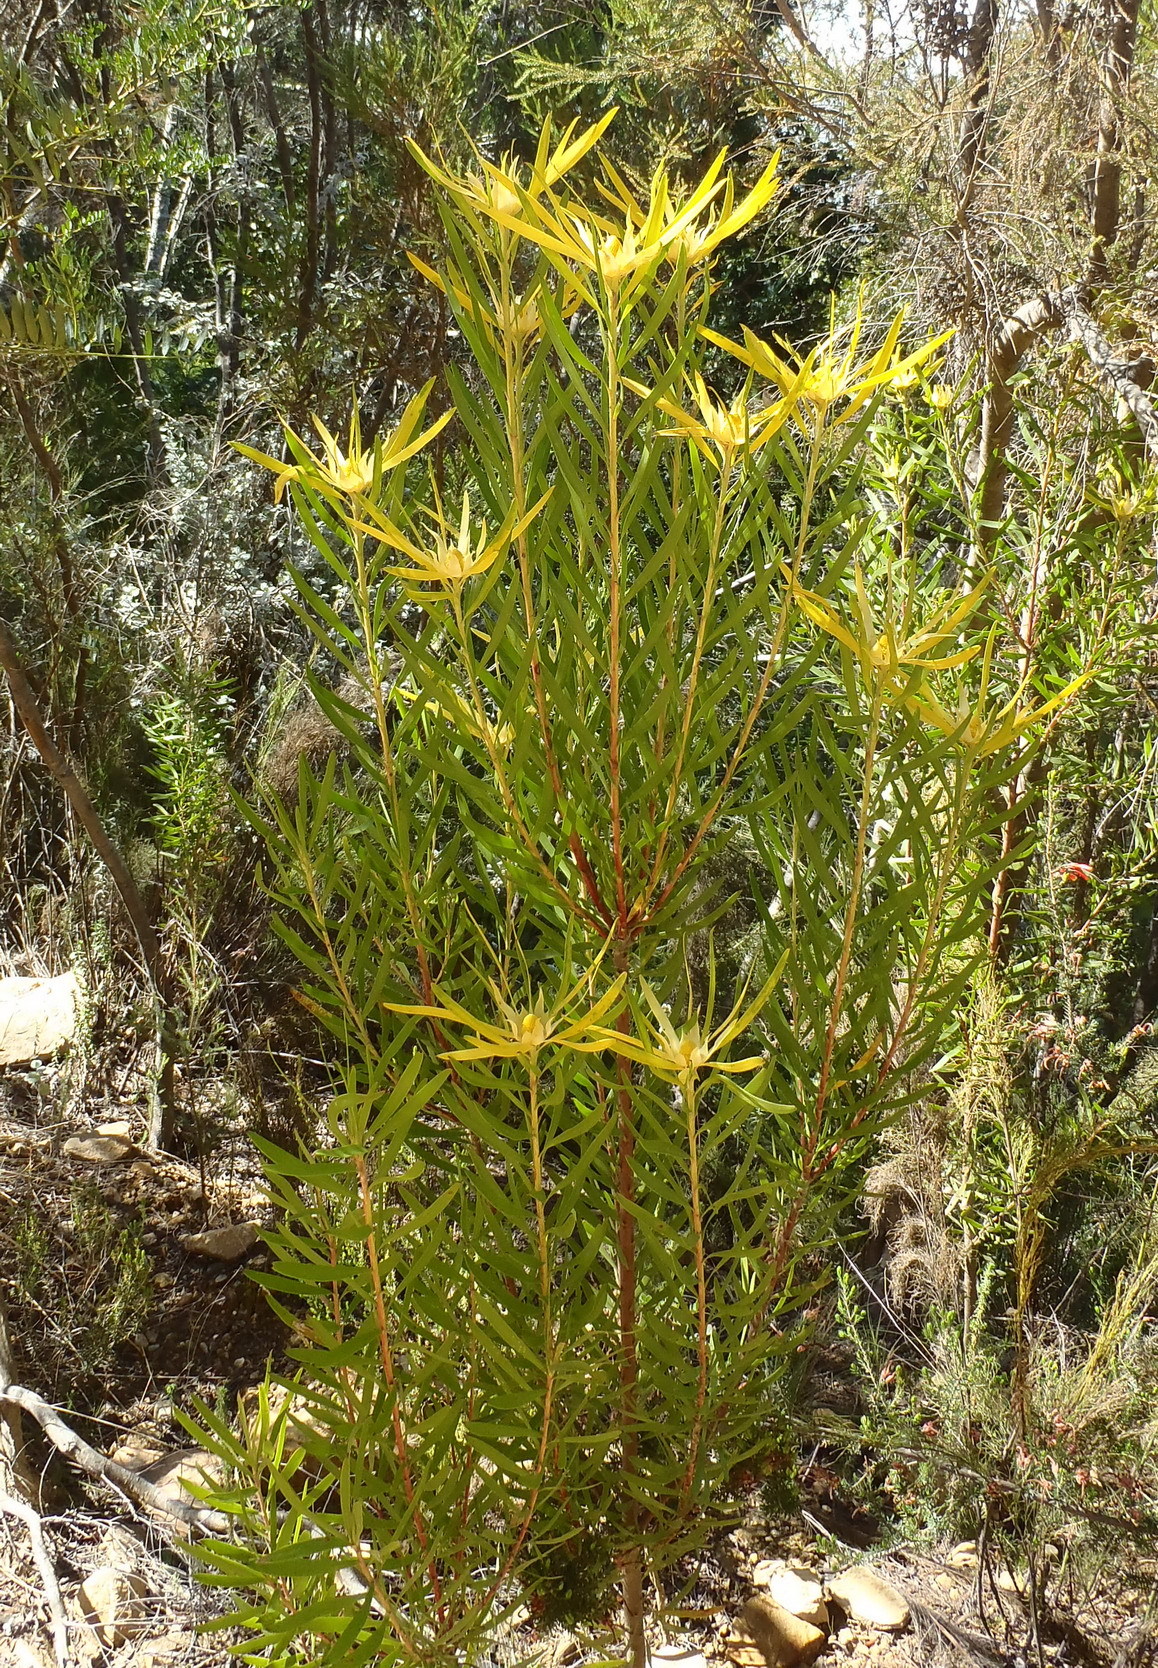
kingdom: Plantae
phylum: Tracheophyta
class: Magnoliopsida
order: Proteales
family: Proteaceae
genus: Leucadendron
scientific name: Leucadendron eucalyptifolium
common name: Gum-leaved conebush
